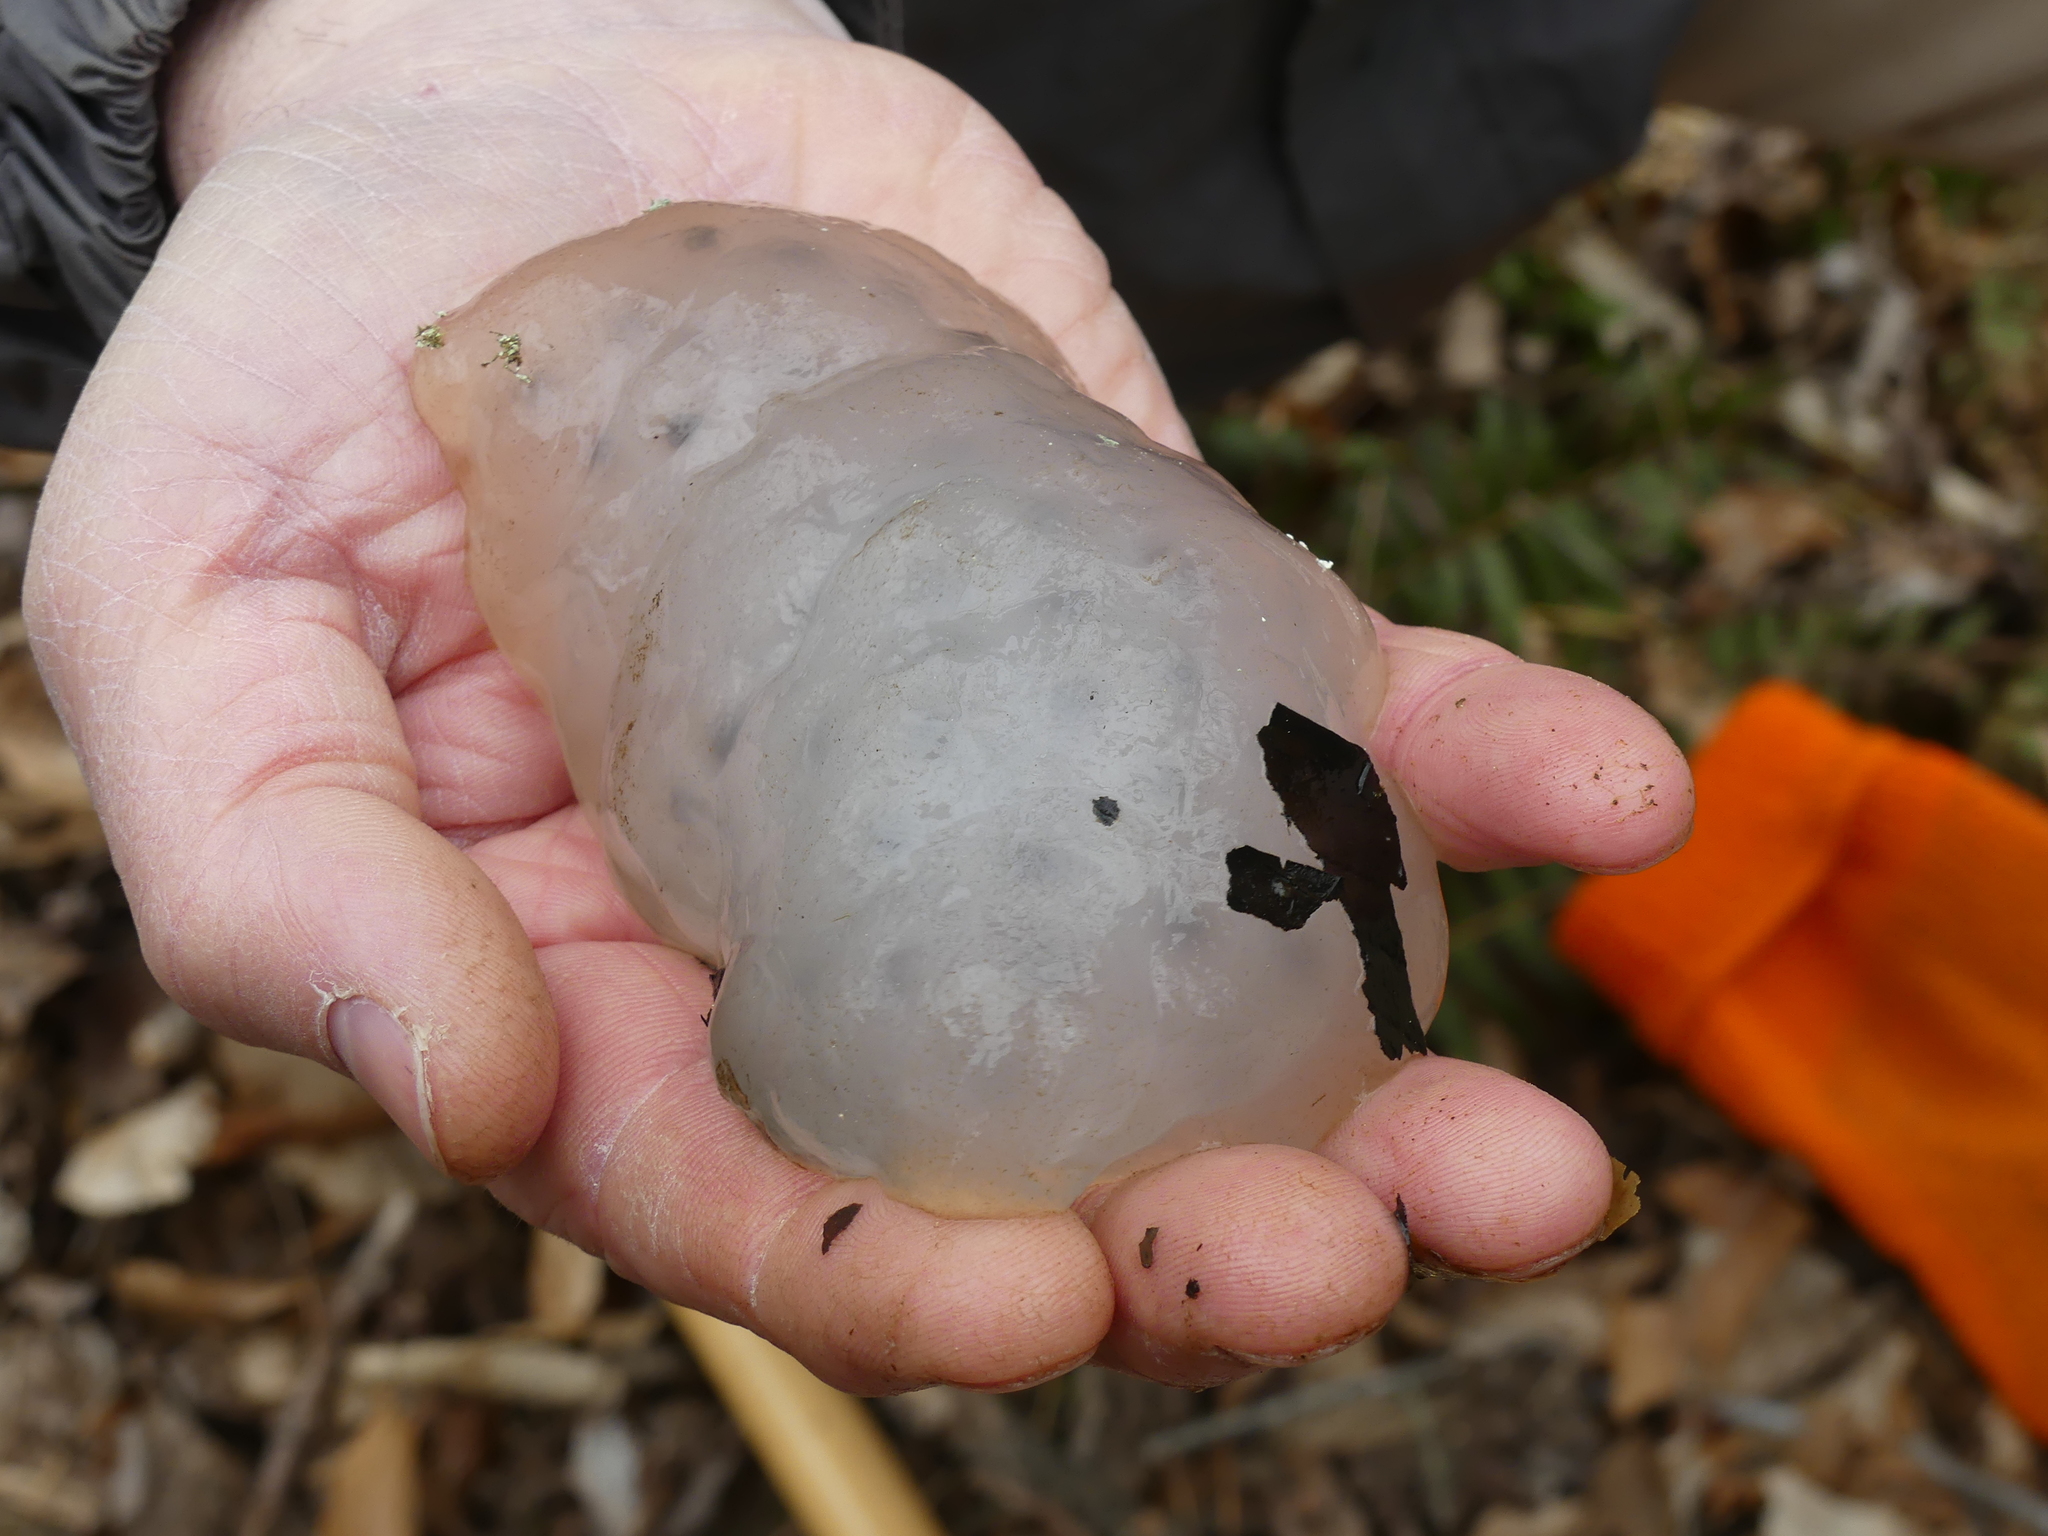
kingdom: Animalia
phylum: Chordata
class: Amphibia
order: Caudata
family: Ambystomatidae
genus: Ambystoma
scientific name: Ambystoma maculatum
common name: Spotted salamander
